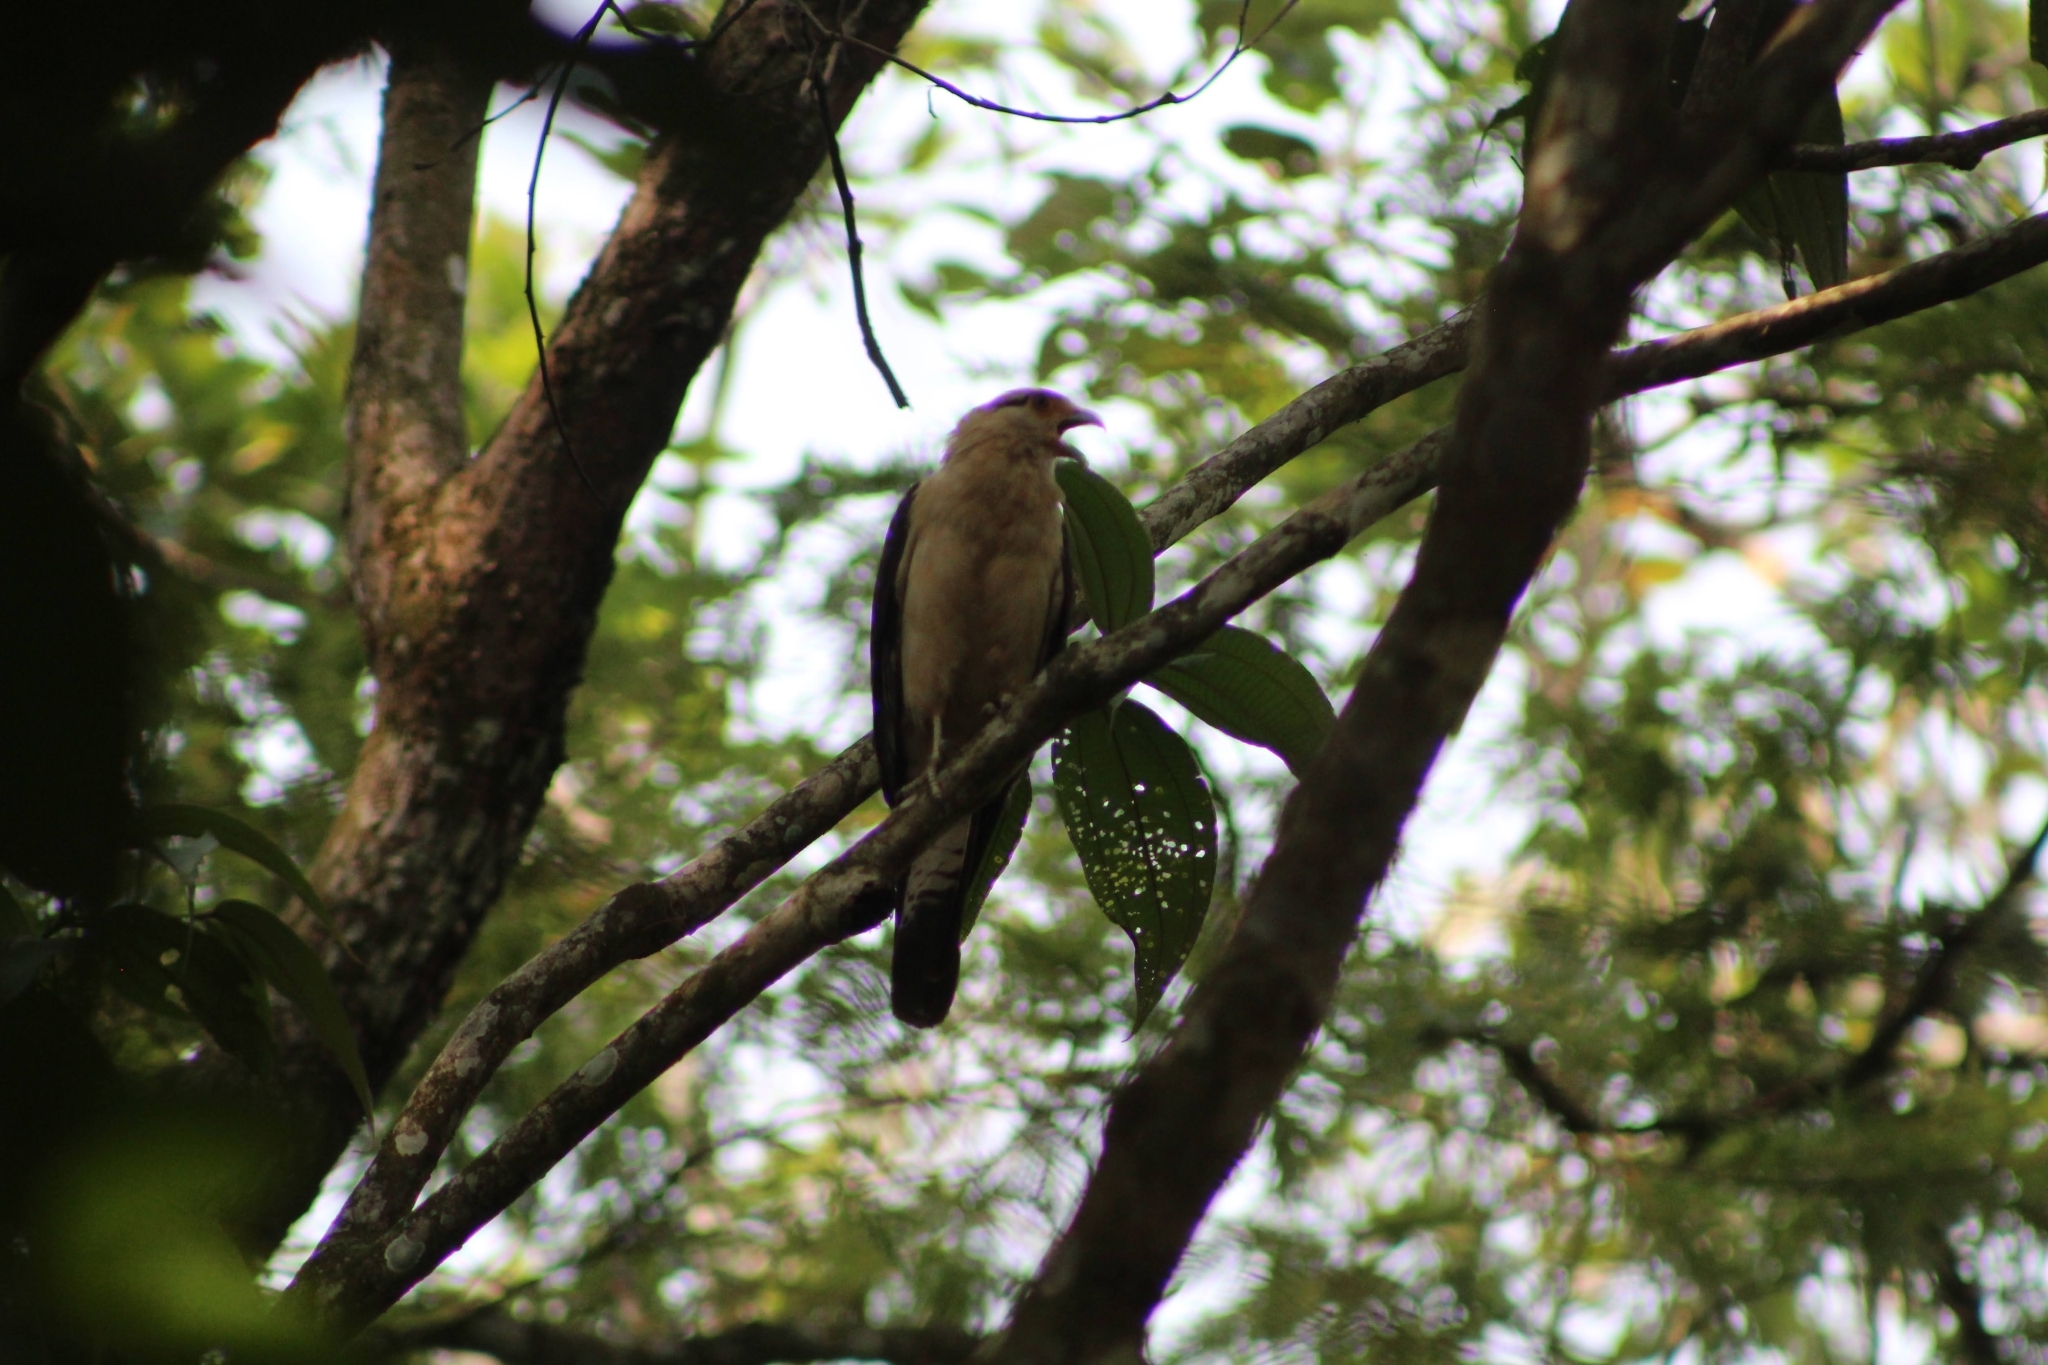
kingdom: Animalia
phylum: Chordata
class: Aves
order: Falconiformes
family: Falconidae
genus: Daptrius
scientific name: Daptrius
